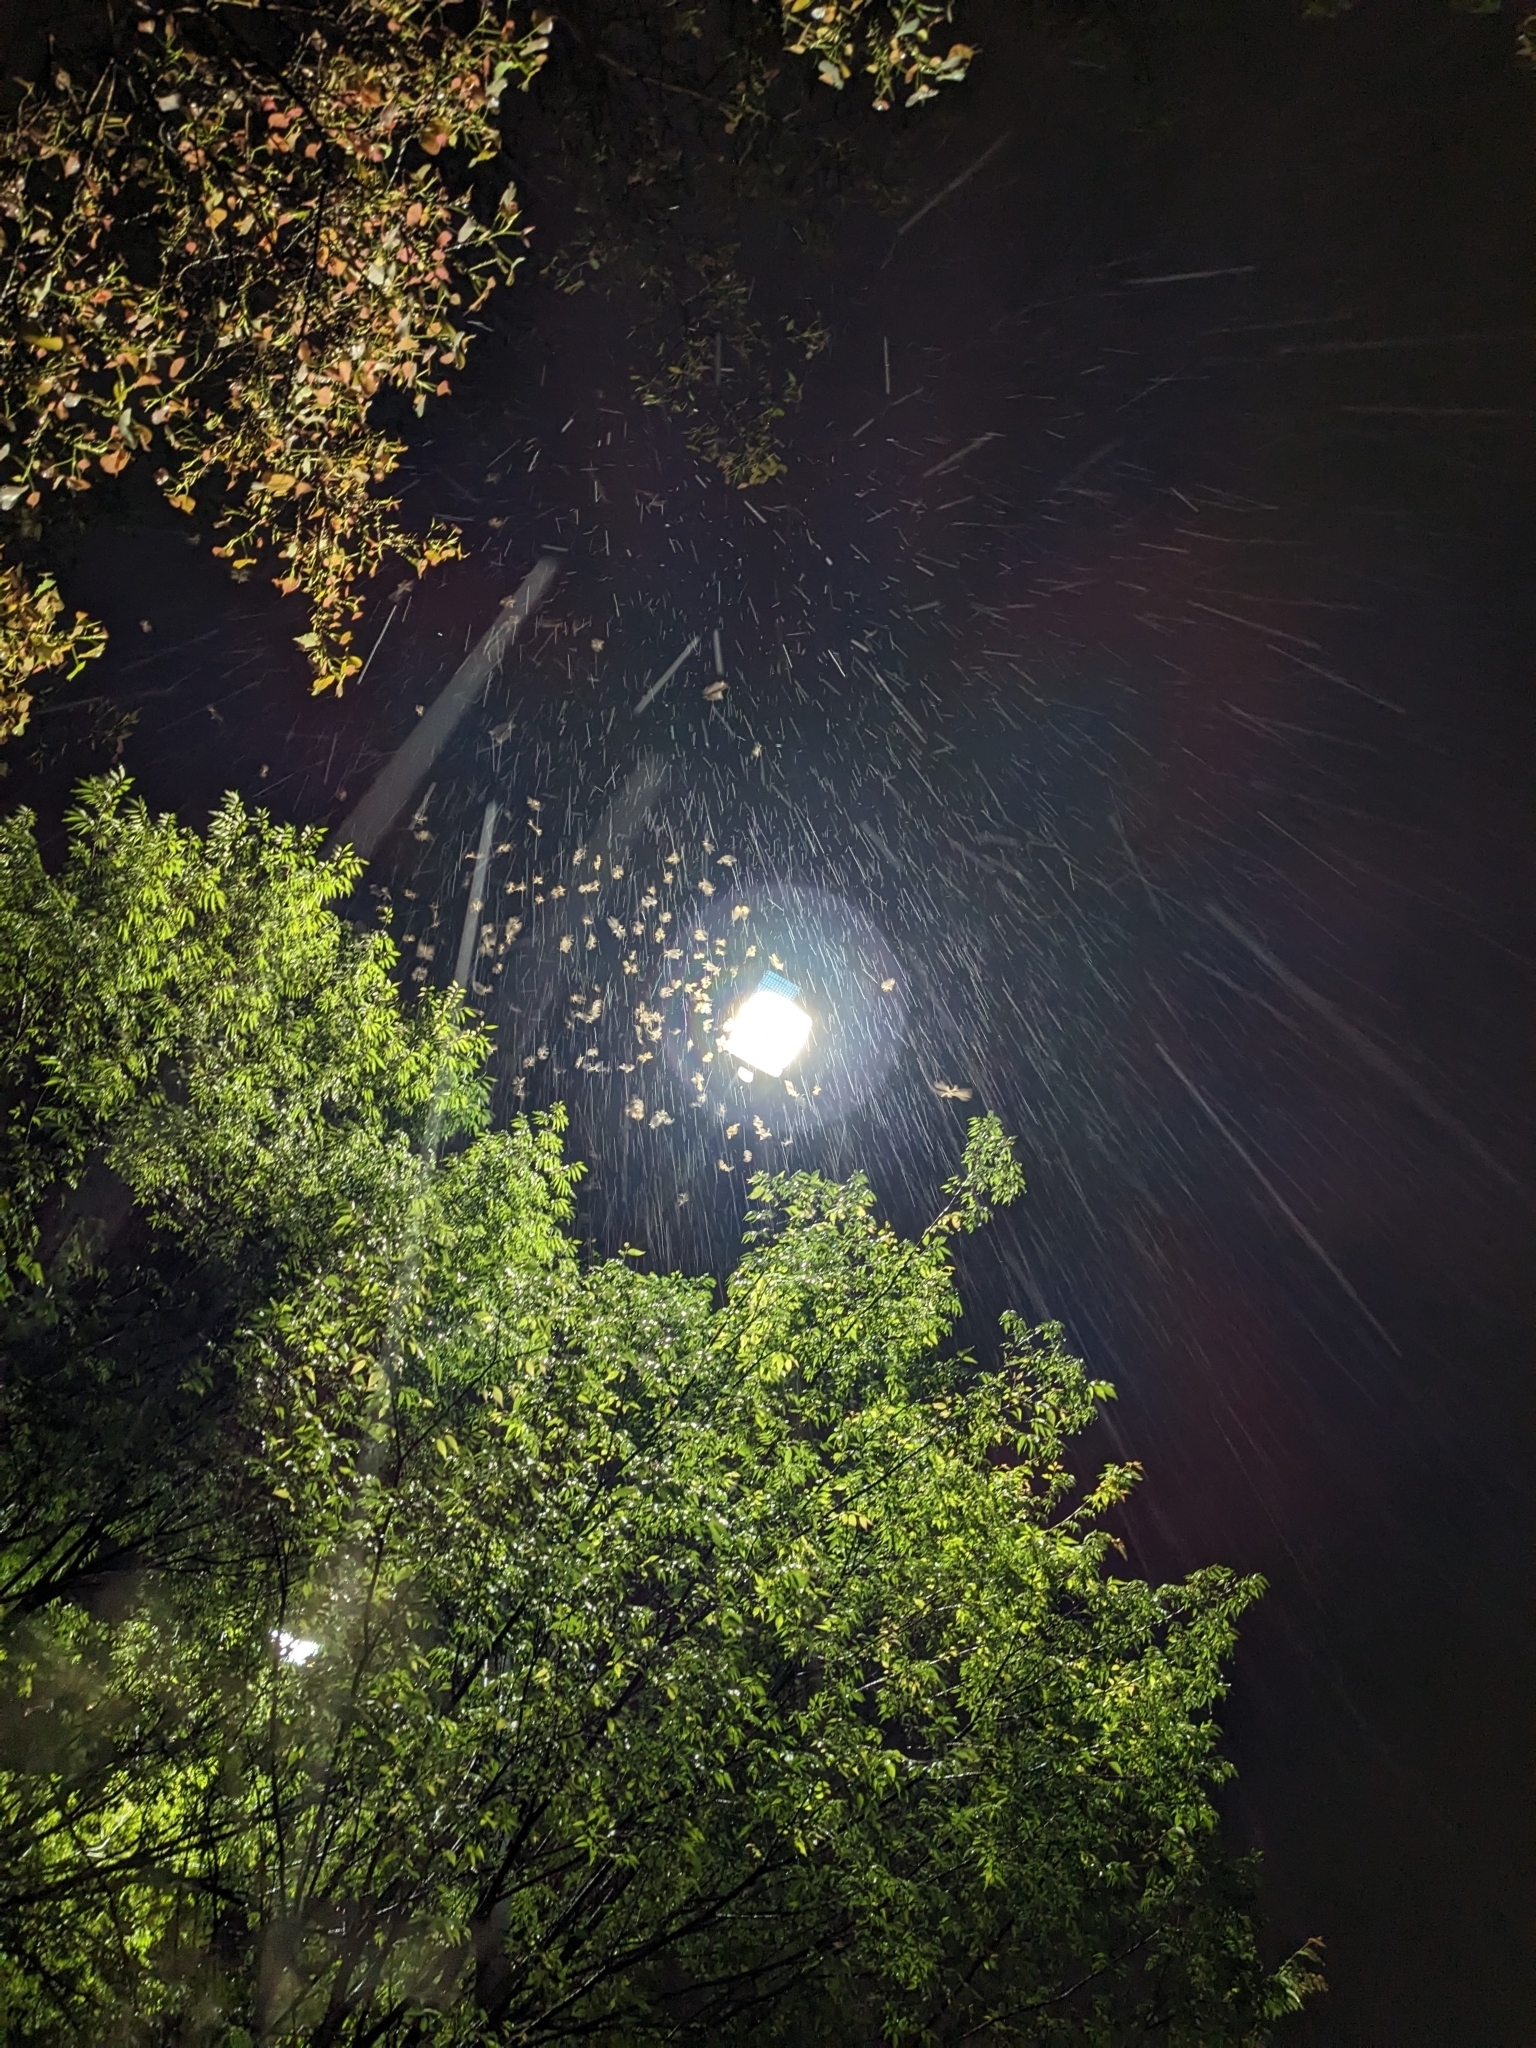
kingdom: Animalia
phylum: Arthropoda
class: Insecta
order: Blattodea
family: Termitidae
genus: Odontotermes
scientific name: Odontotermes formosanus
